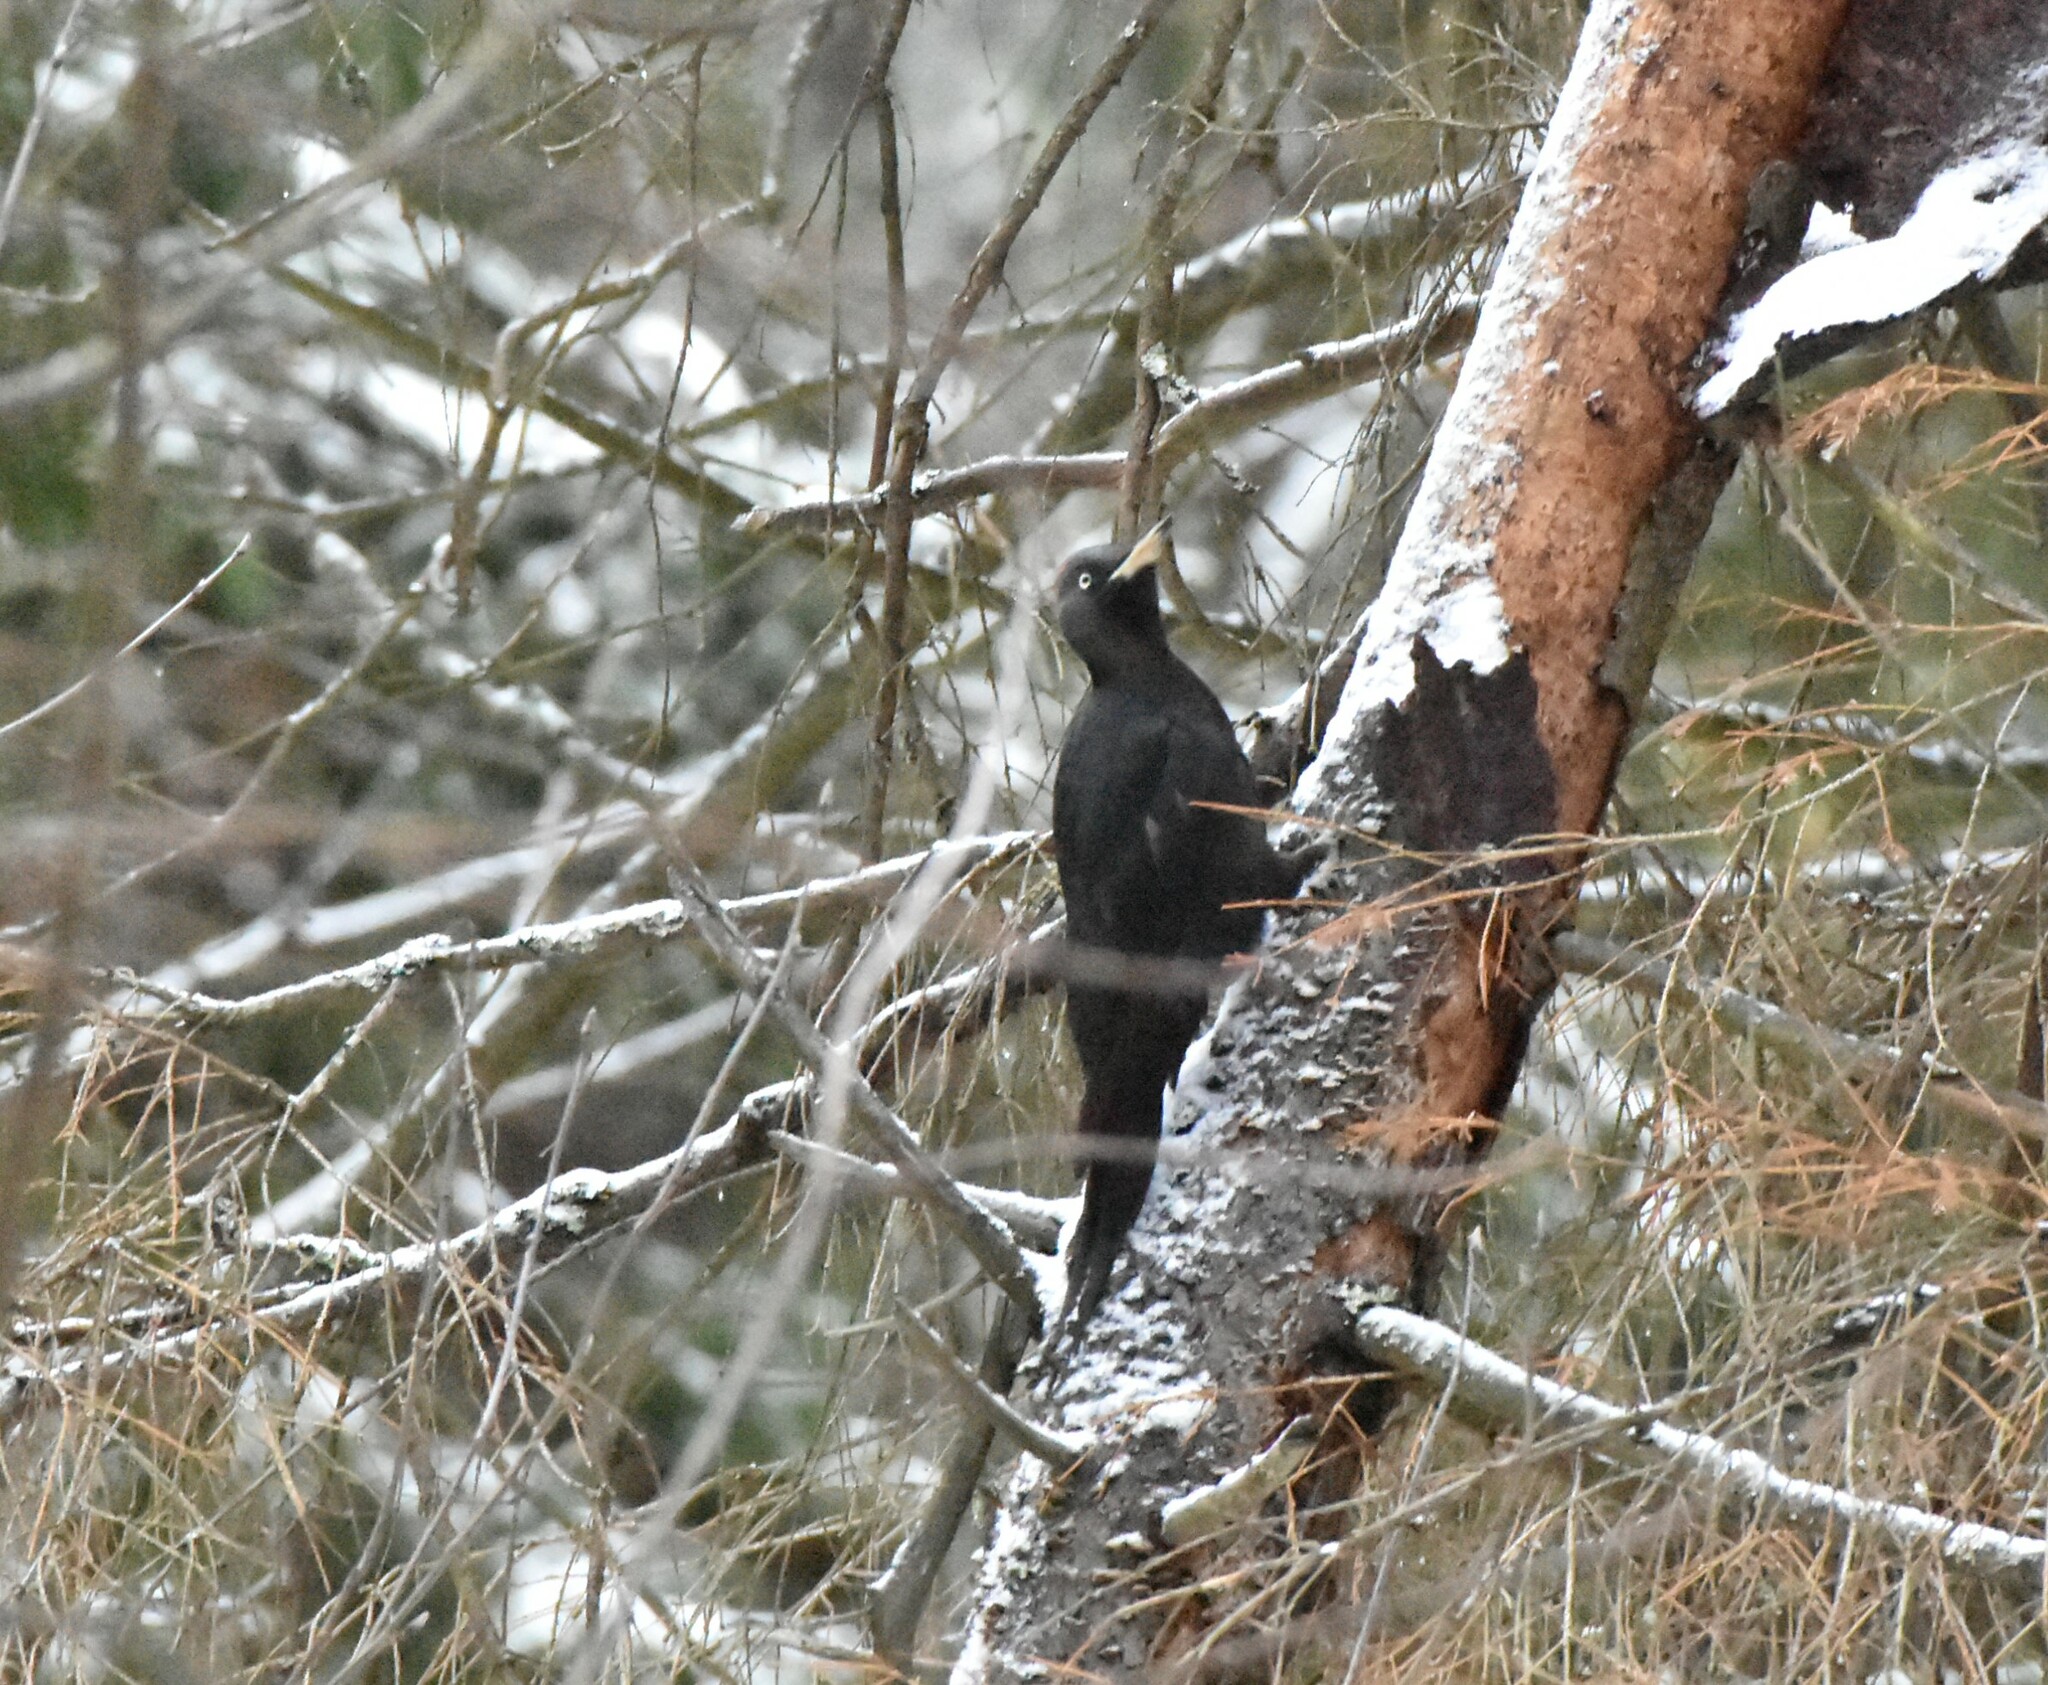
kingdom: Animalia
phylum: Chordata
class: Aves
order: Piciformes
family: Picidae
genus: Dryocopus
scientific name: Dryocopus martius
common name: Black woodpecker
